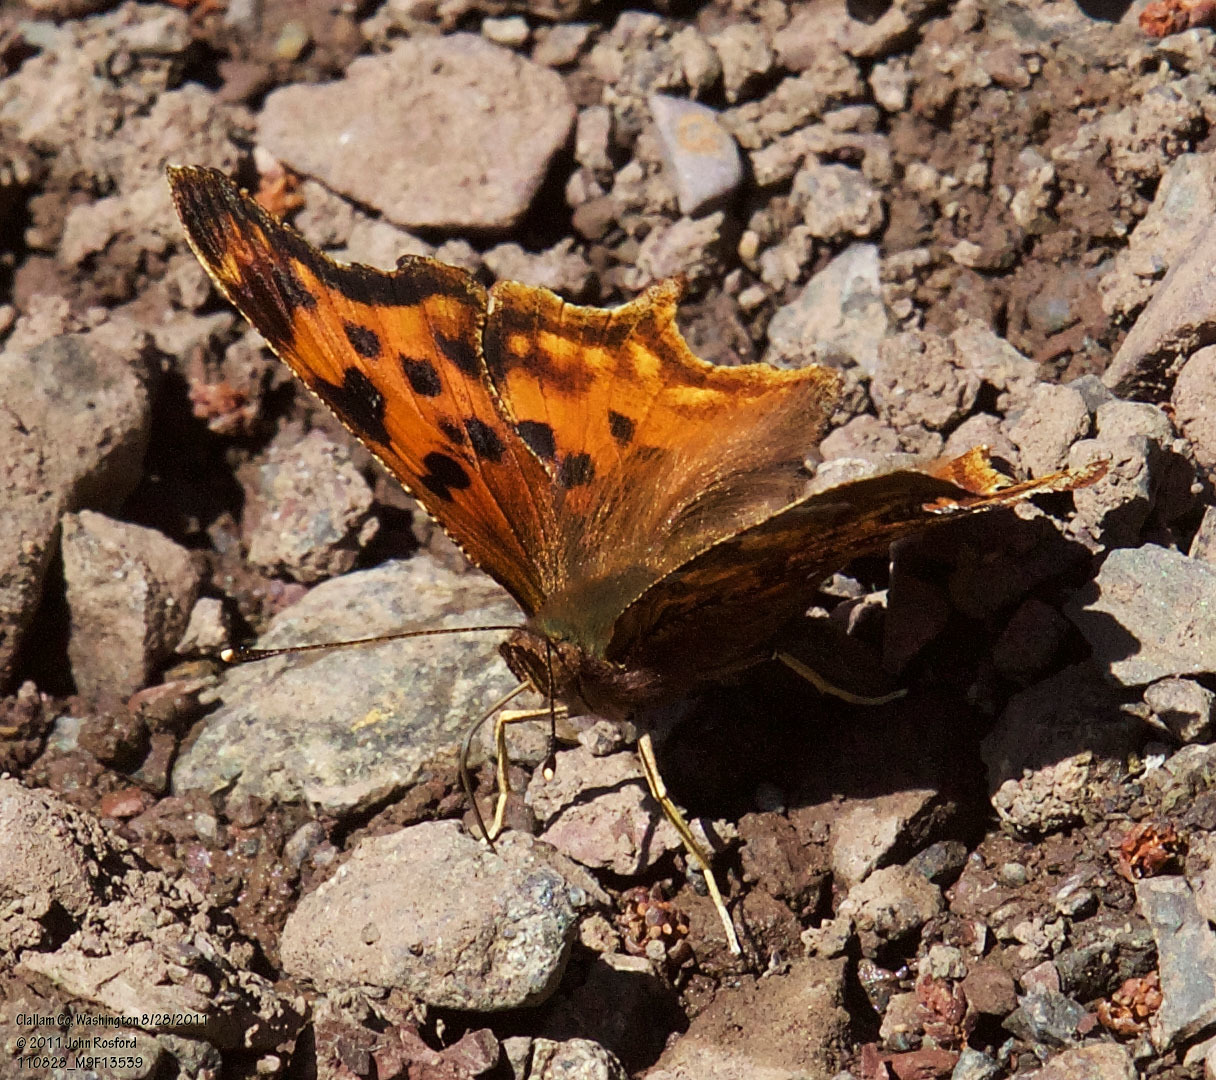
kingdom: Animalia
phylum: Arthropoda
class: Insecta
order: Lepidoptera
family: Nymphalidae
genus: Polygonia
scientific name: Polygonia satyrus
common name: Satyr angle wing
